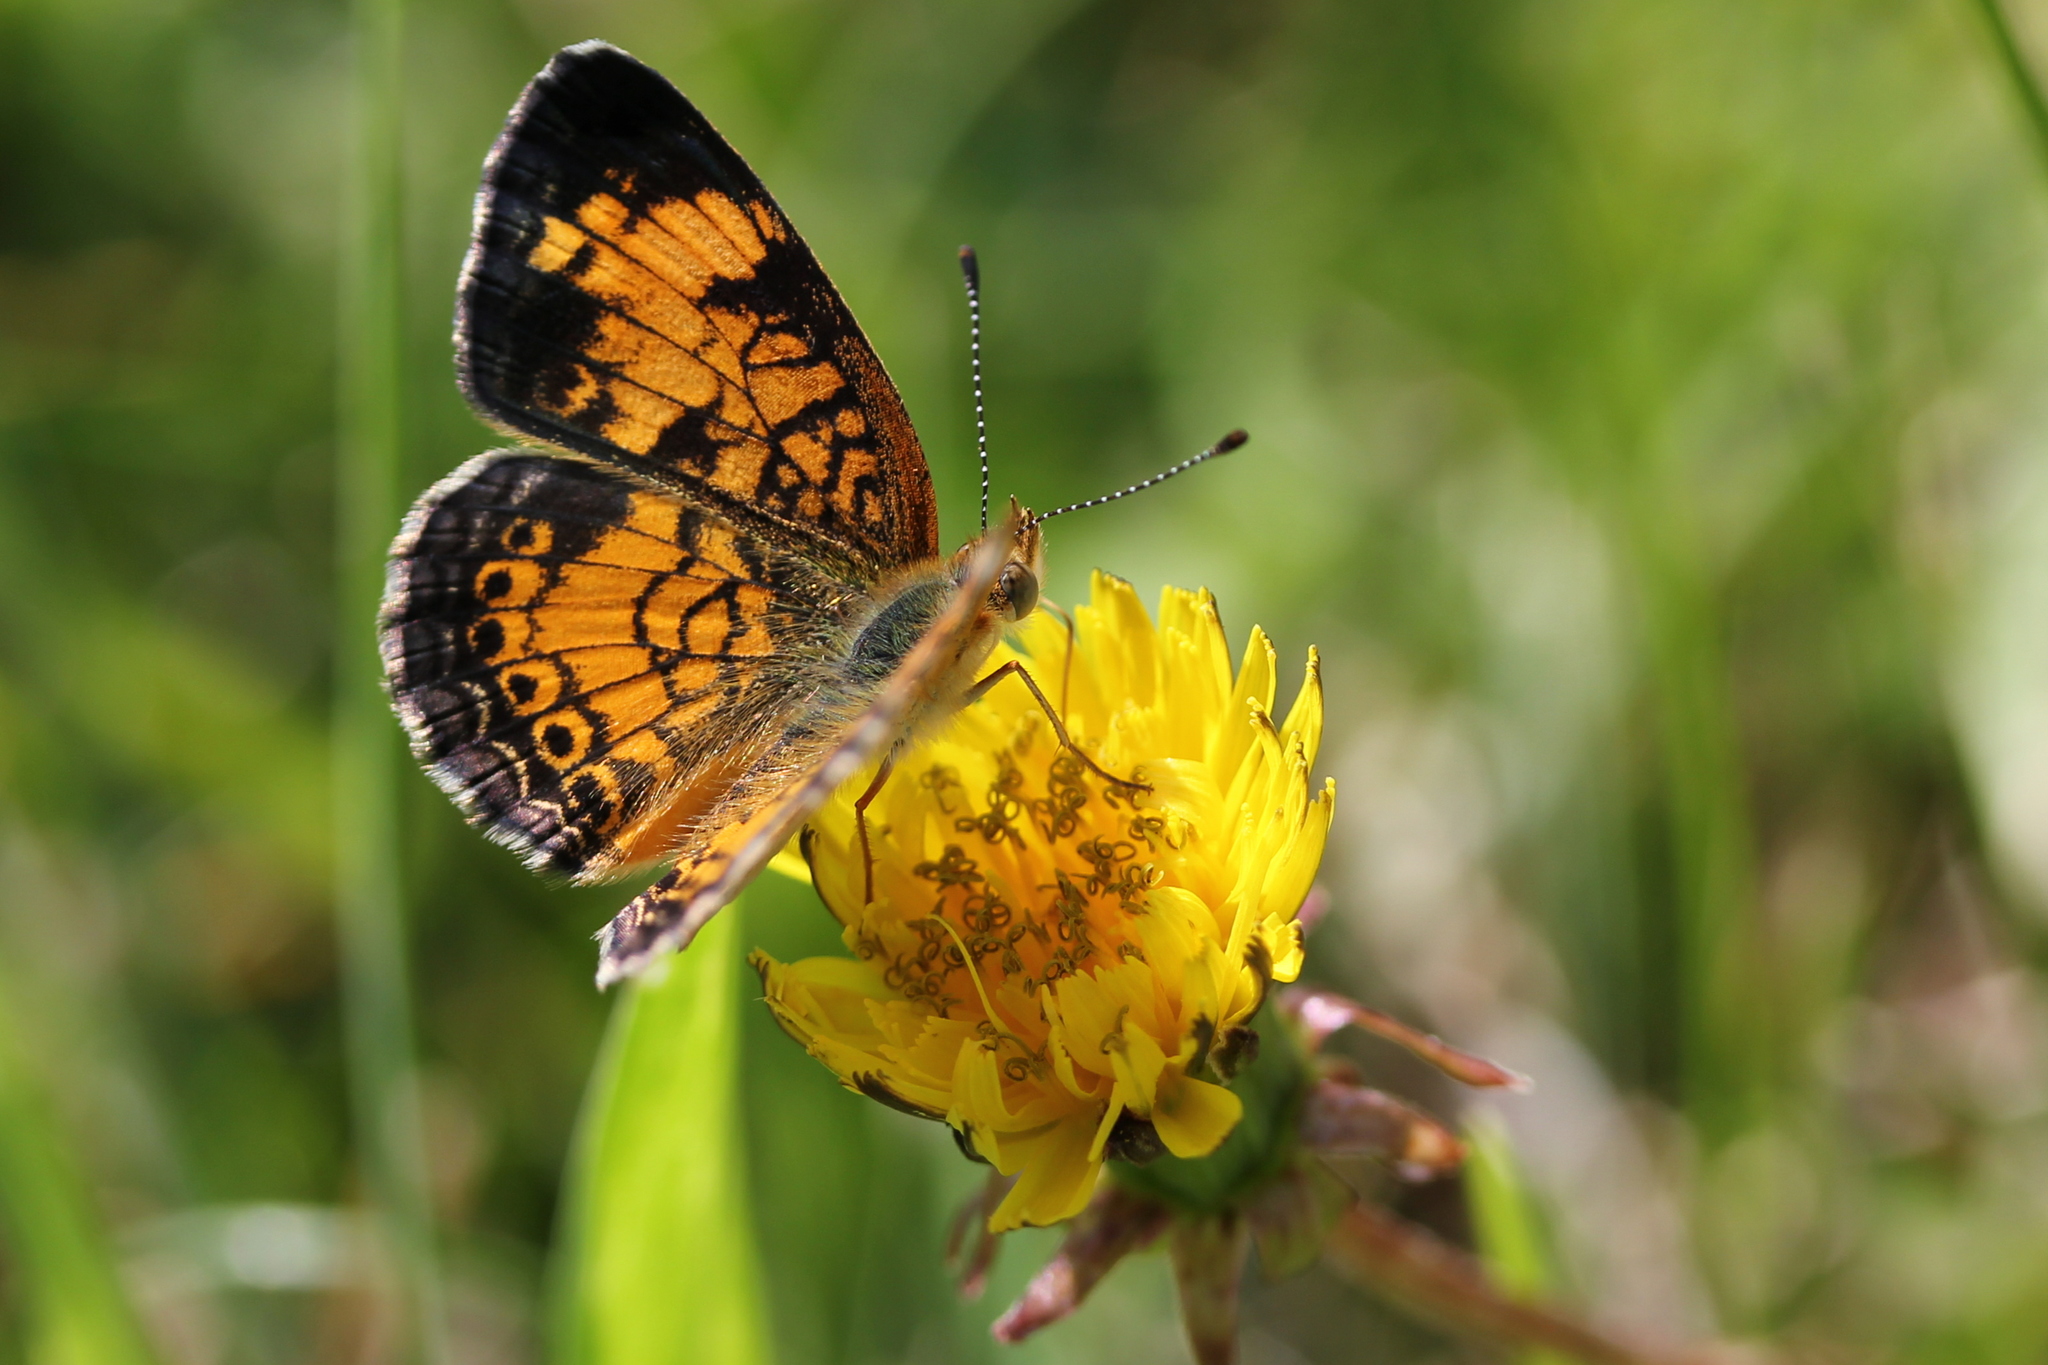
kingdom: Animalia
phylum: Arthropoda
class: Insecta
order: Lepidoptera
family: Nymphalidae
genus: Phyciodes
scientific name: Phyciodes tharos
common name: Pearl crescent
